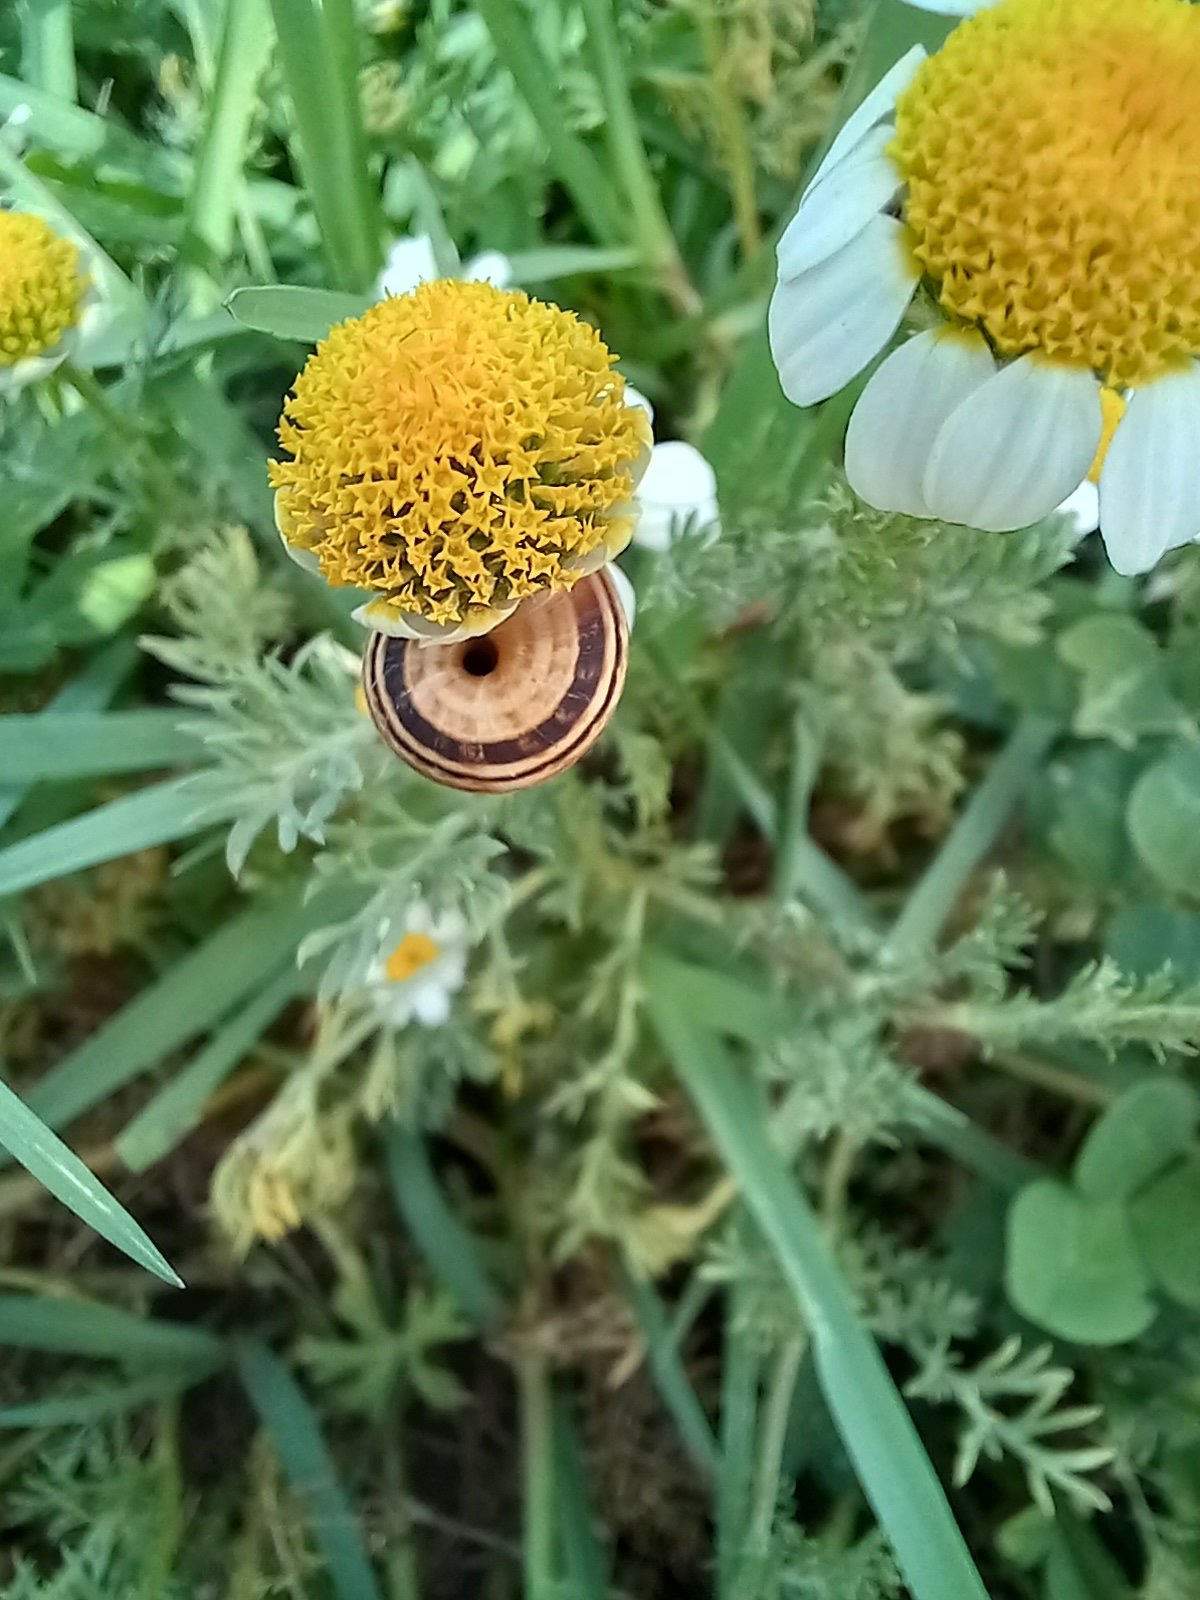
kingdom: Animalia
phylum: Mollusca
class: Gastropoda
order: Stylommatophora
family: Geomitridae
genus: Cernuella
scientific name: Cernuella virgata
